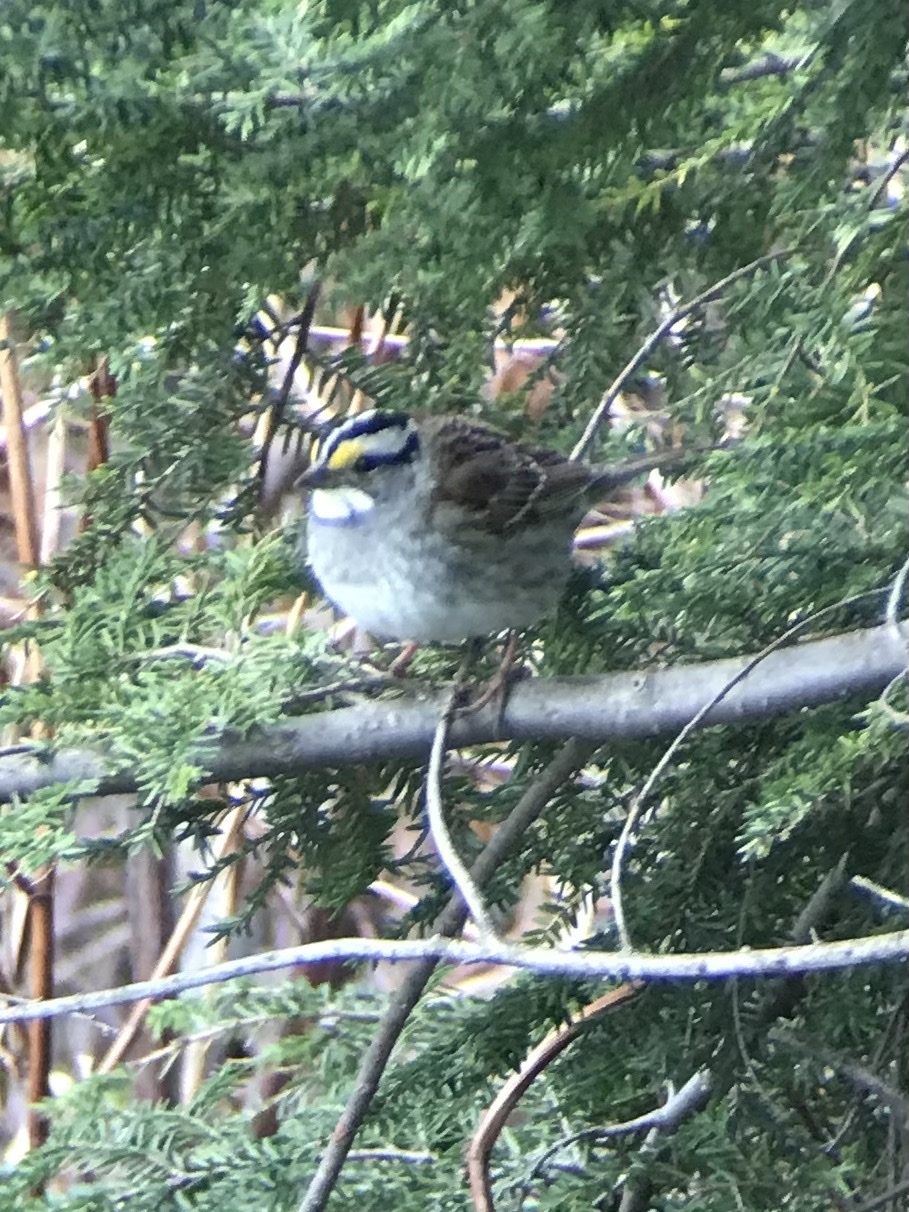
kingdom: Animalia
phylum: Chordata
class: Aves
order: Passeriformes
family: Passerellidae
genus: Zonotrichia
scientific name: Zonotrichia albicollis
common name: White-throated sparrow
